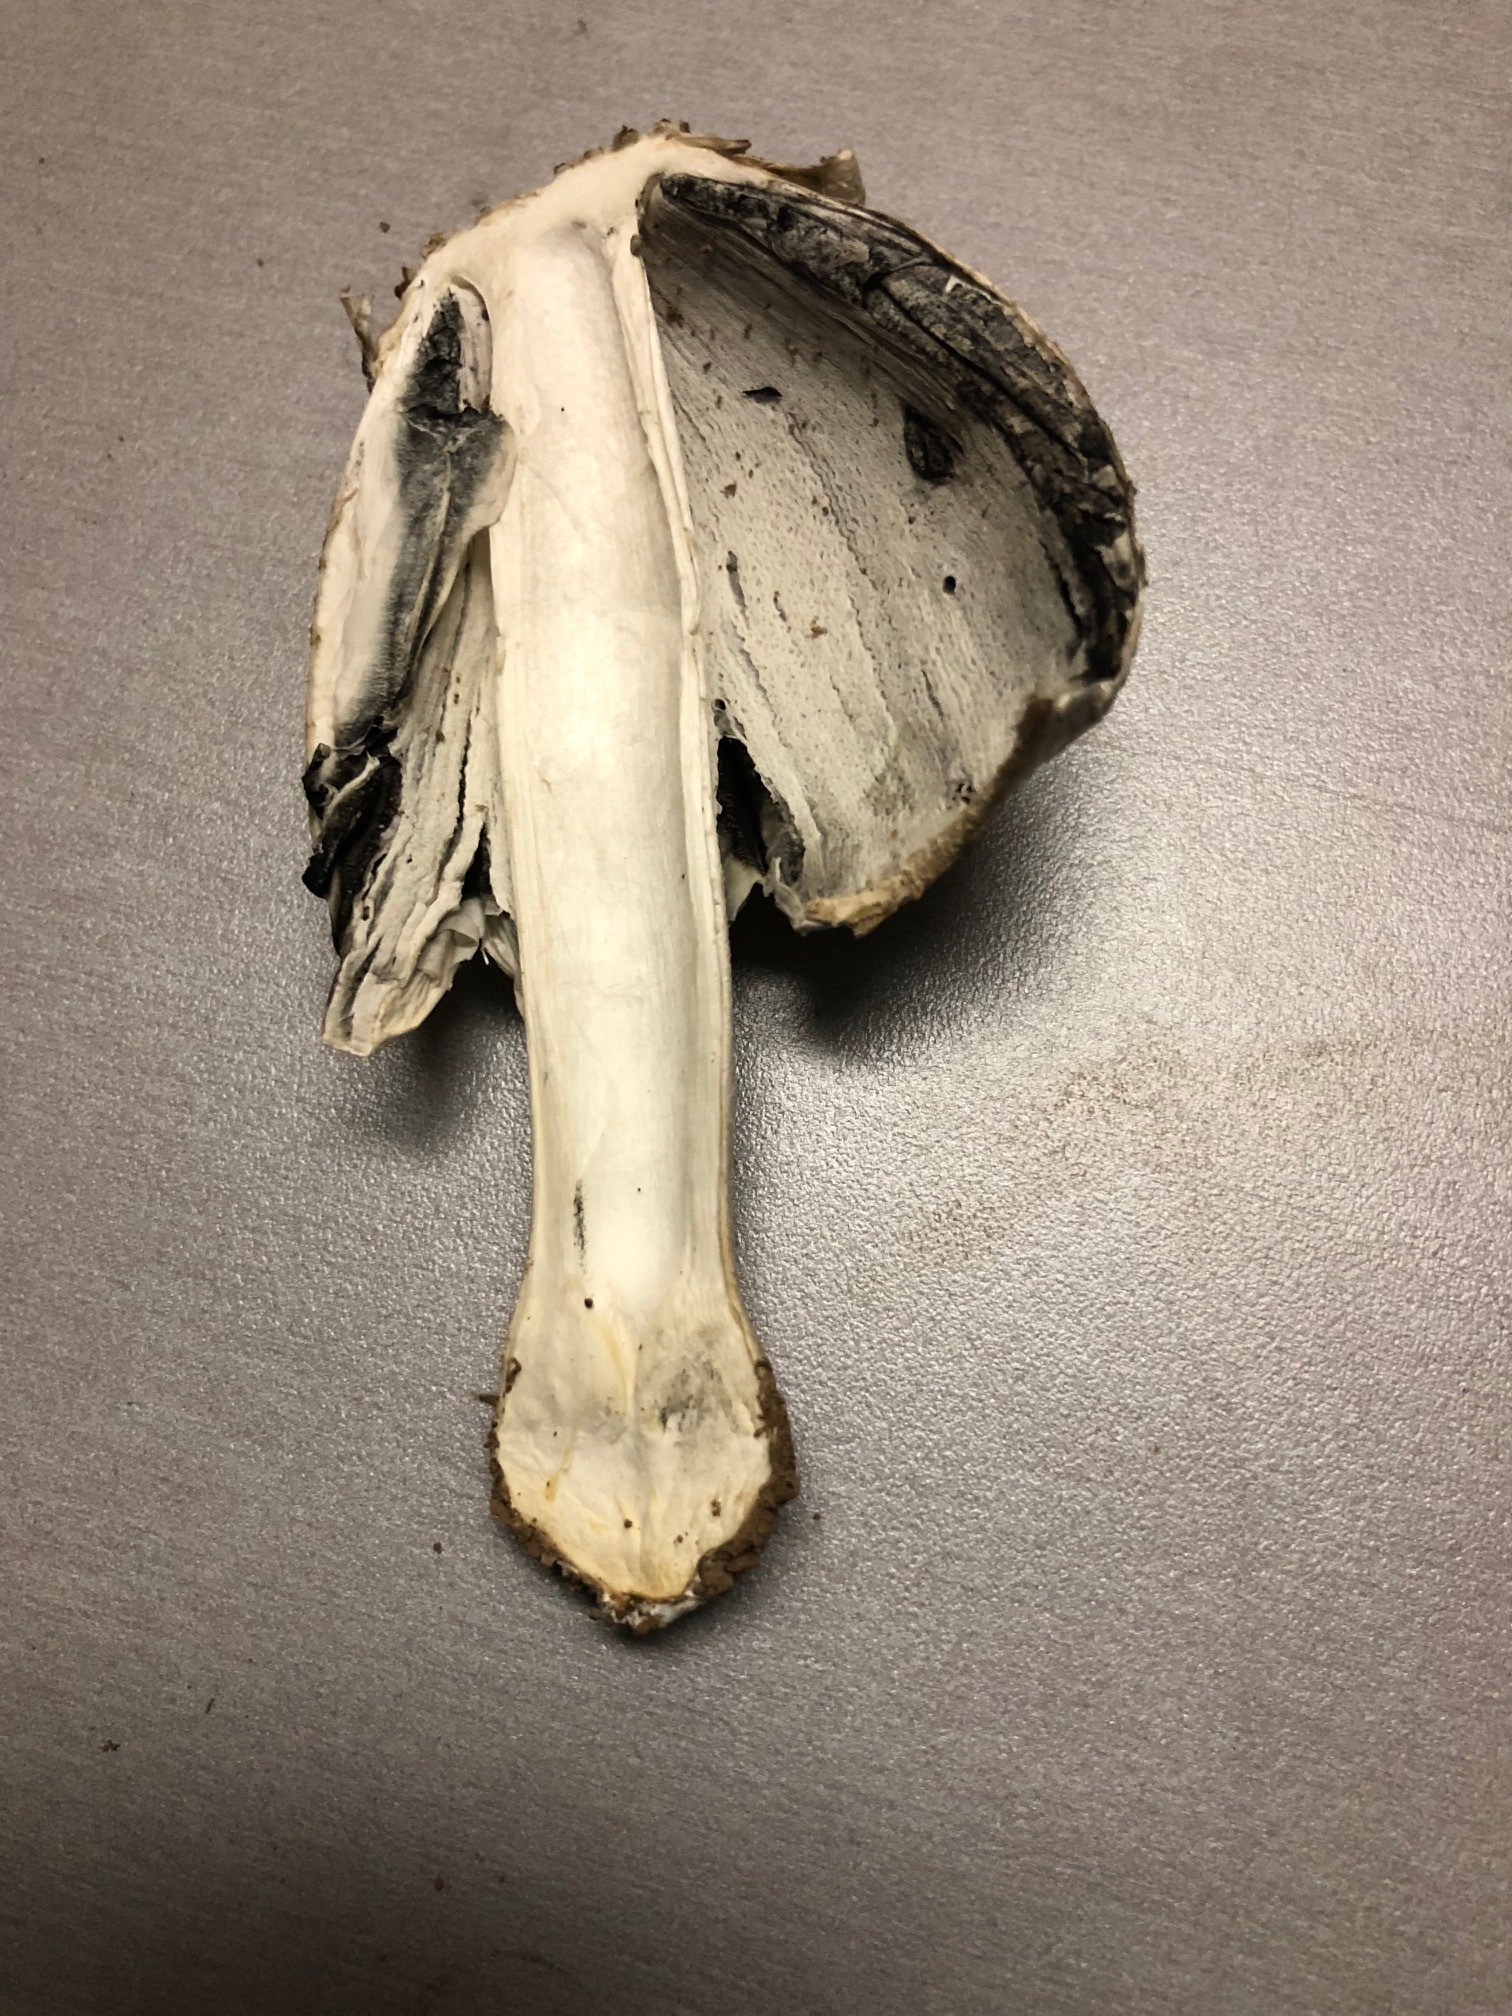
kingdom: Fungi
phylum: Basidiomycota
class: Agaricomycetes
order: Agaricales
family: Agaricaceae
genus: Coprinus
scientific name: Coprinus comatus
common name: Lawyer's wig
